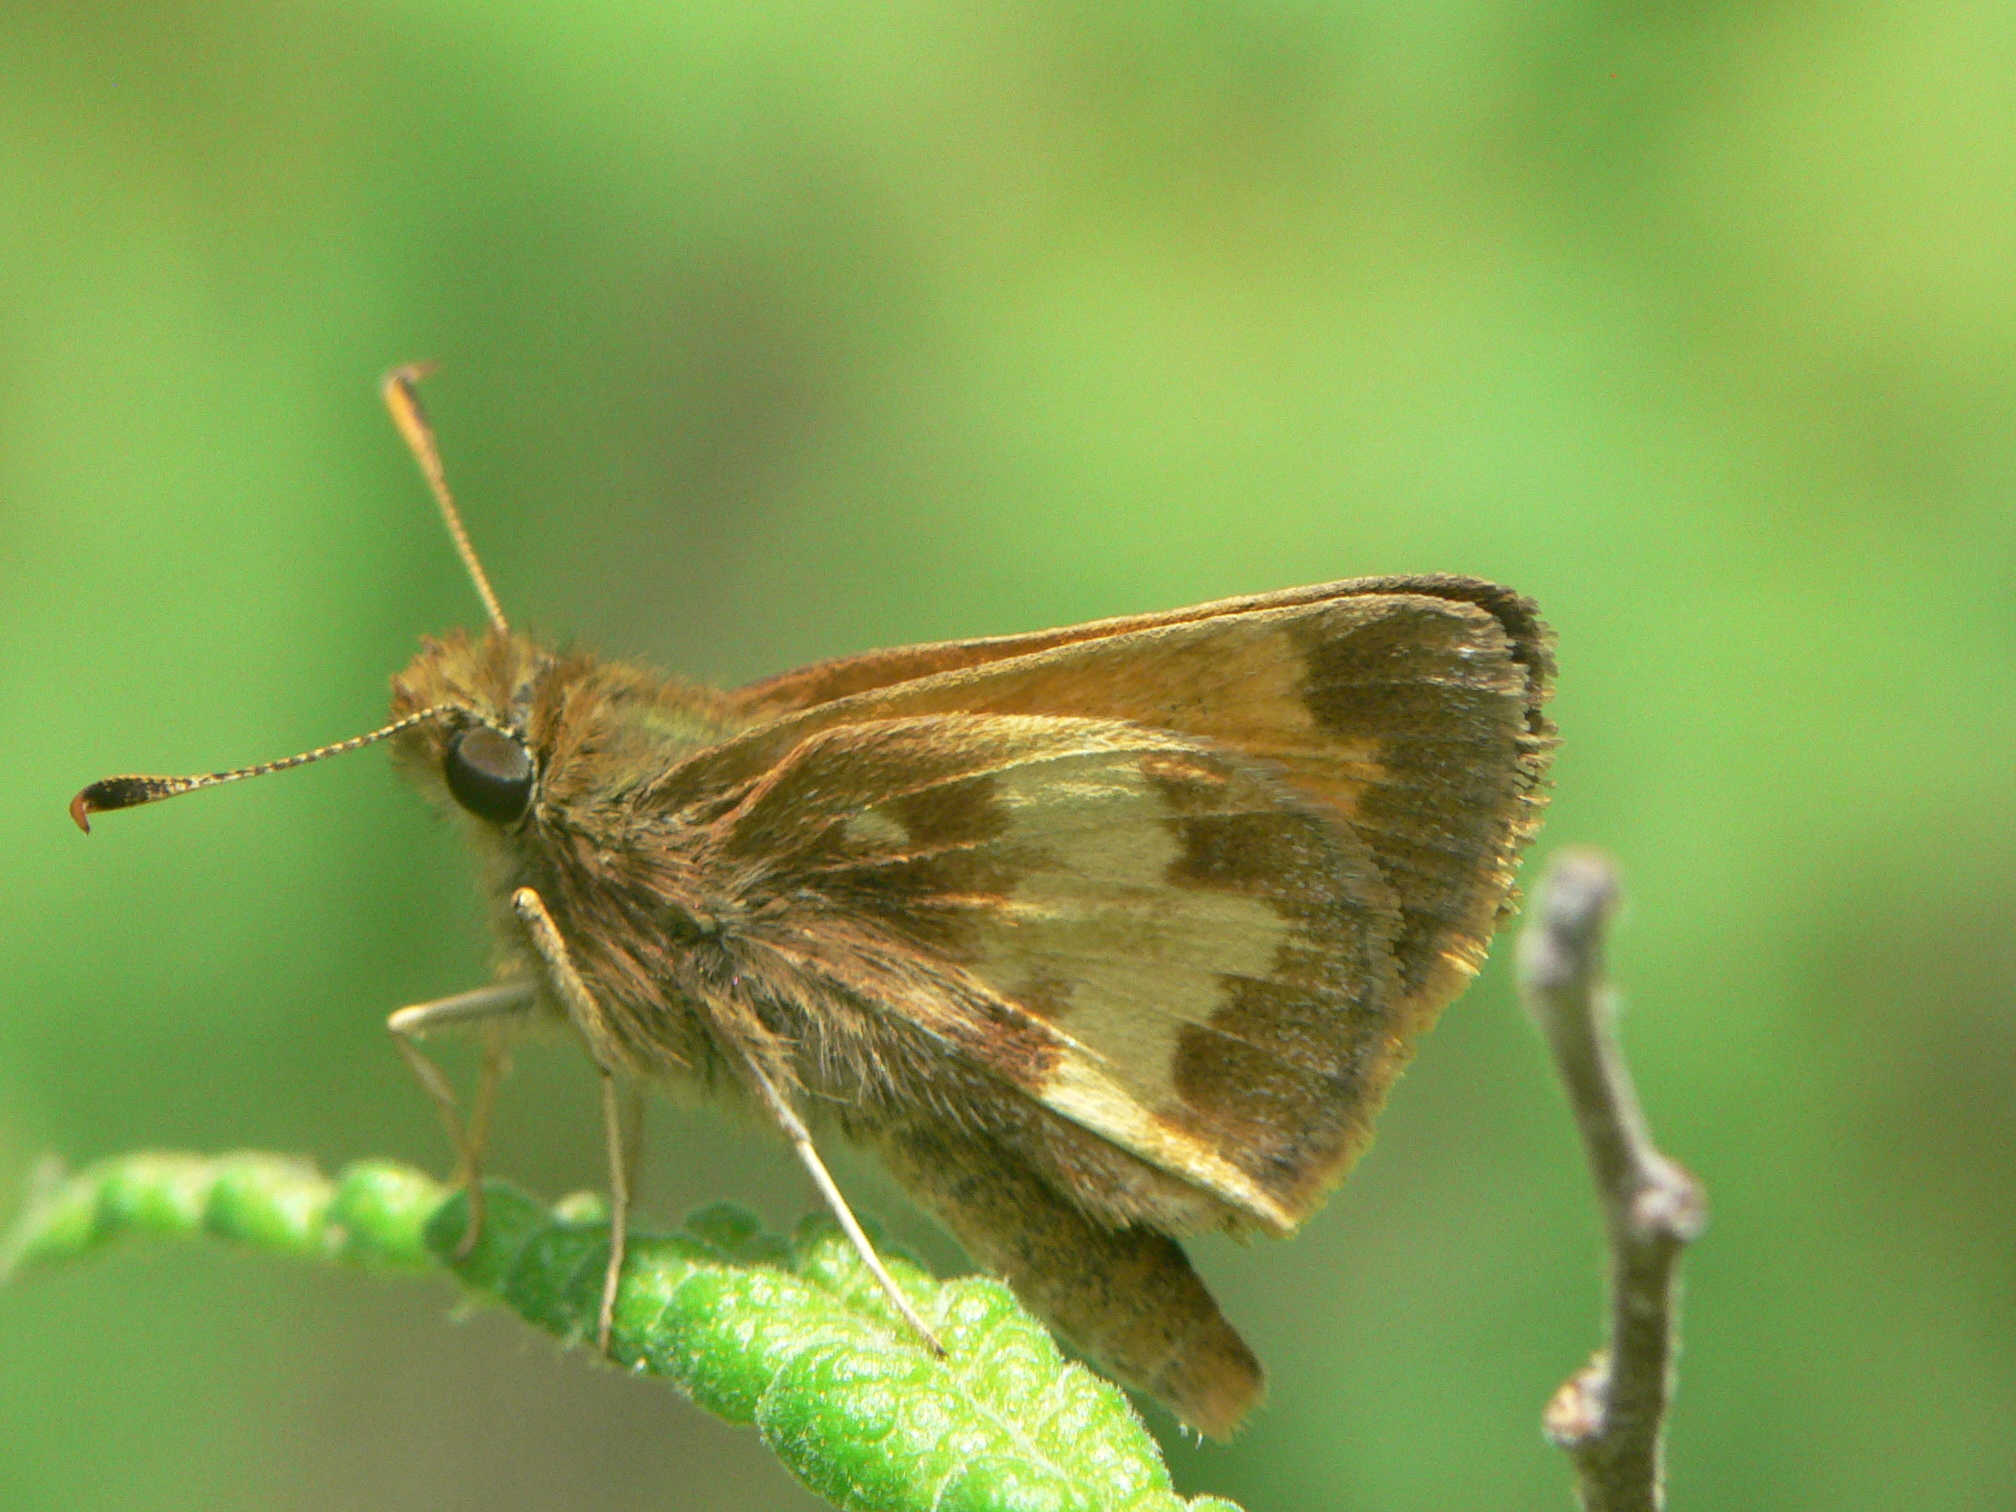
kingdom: Animalia
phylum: Arthropoda
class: Insecta
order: Lepidoptera
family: Hesperiidae
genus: Lon
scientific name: Lon hobomok
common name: Hobomok skipper
